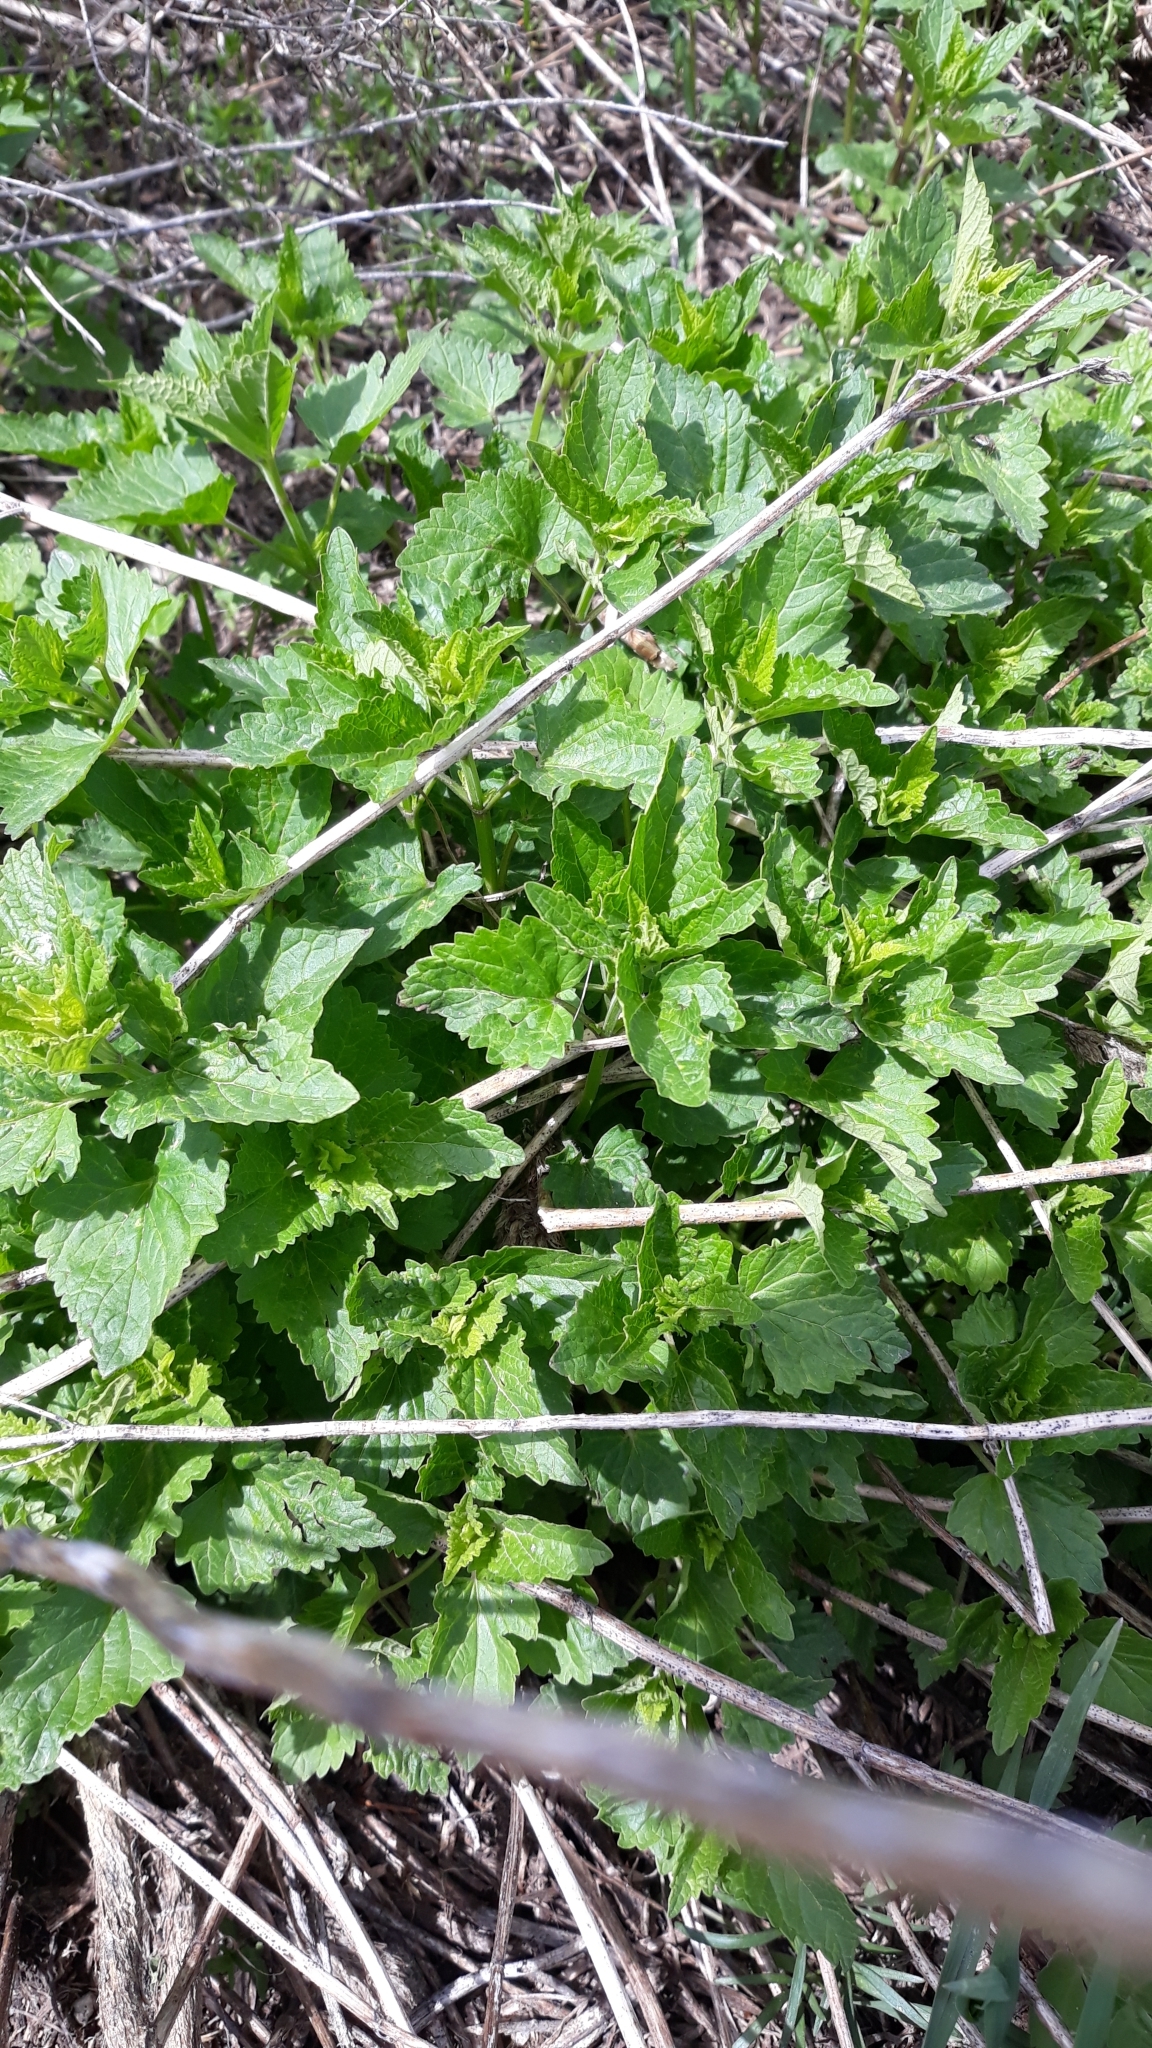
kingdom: Plantae
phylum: Tracheophyta
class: Magnoliopsida
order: Lamiales
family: Lamiaceae
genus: Agastache
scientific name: Agastache urticifolia
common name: Horsemint giant hyssop
